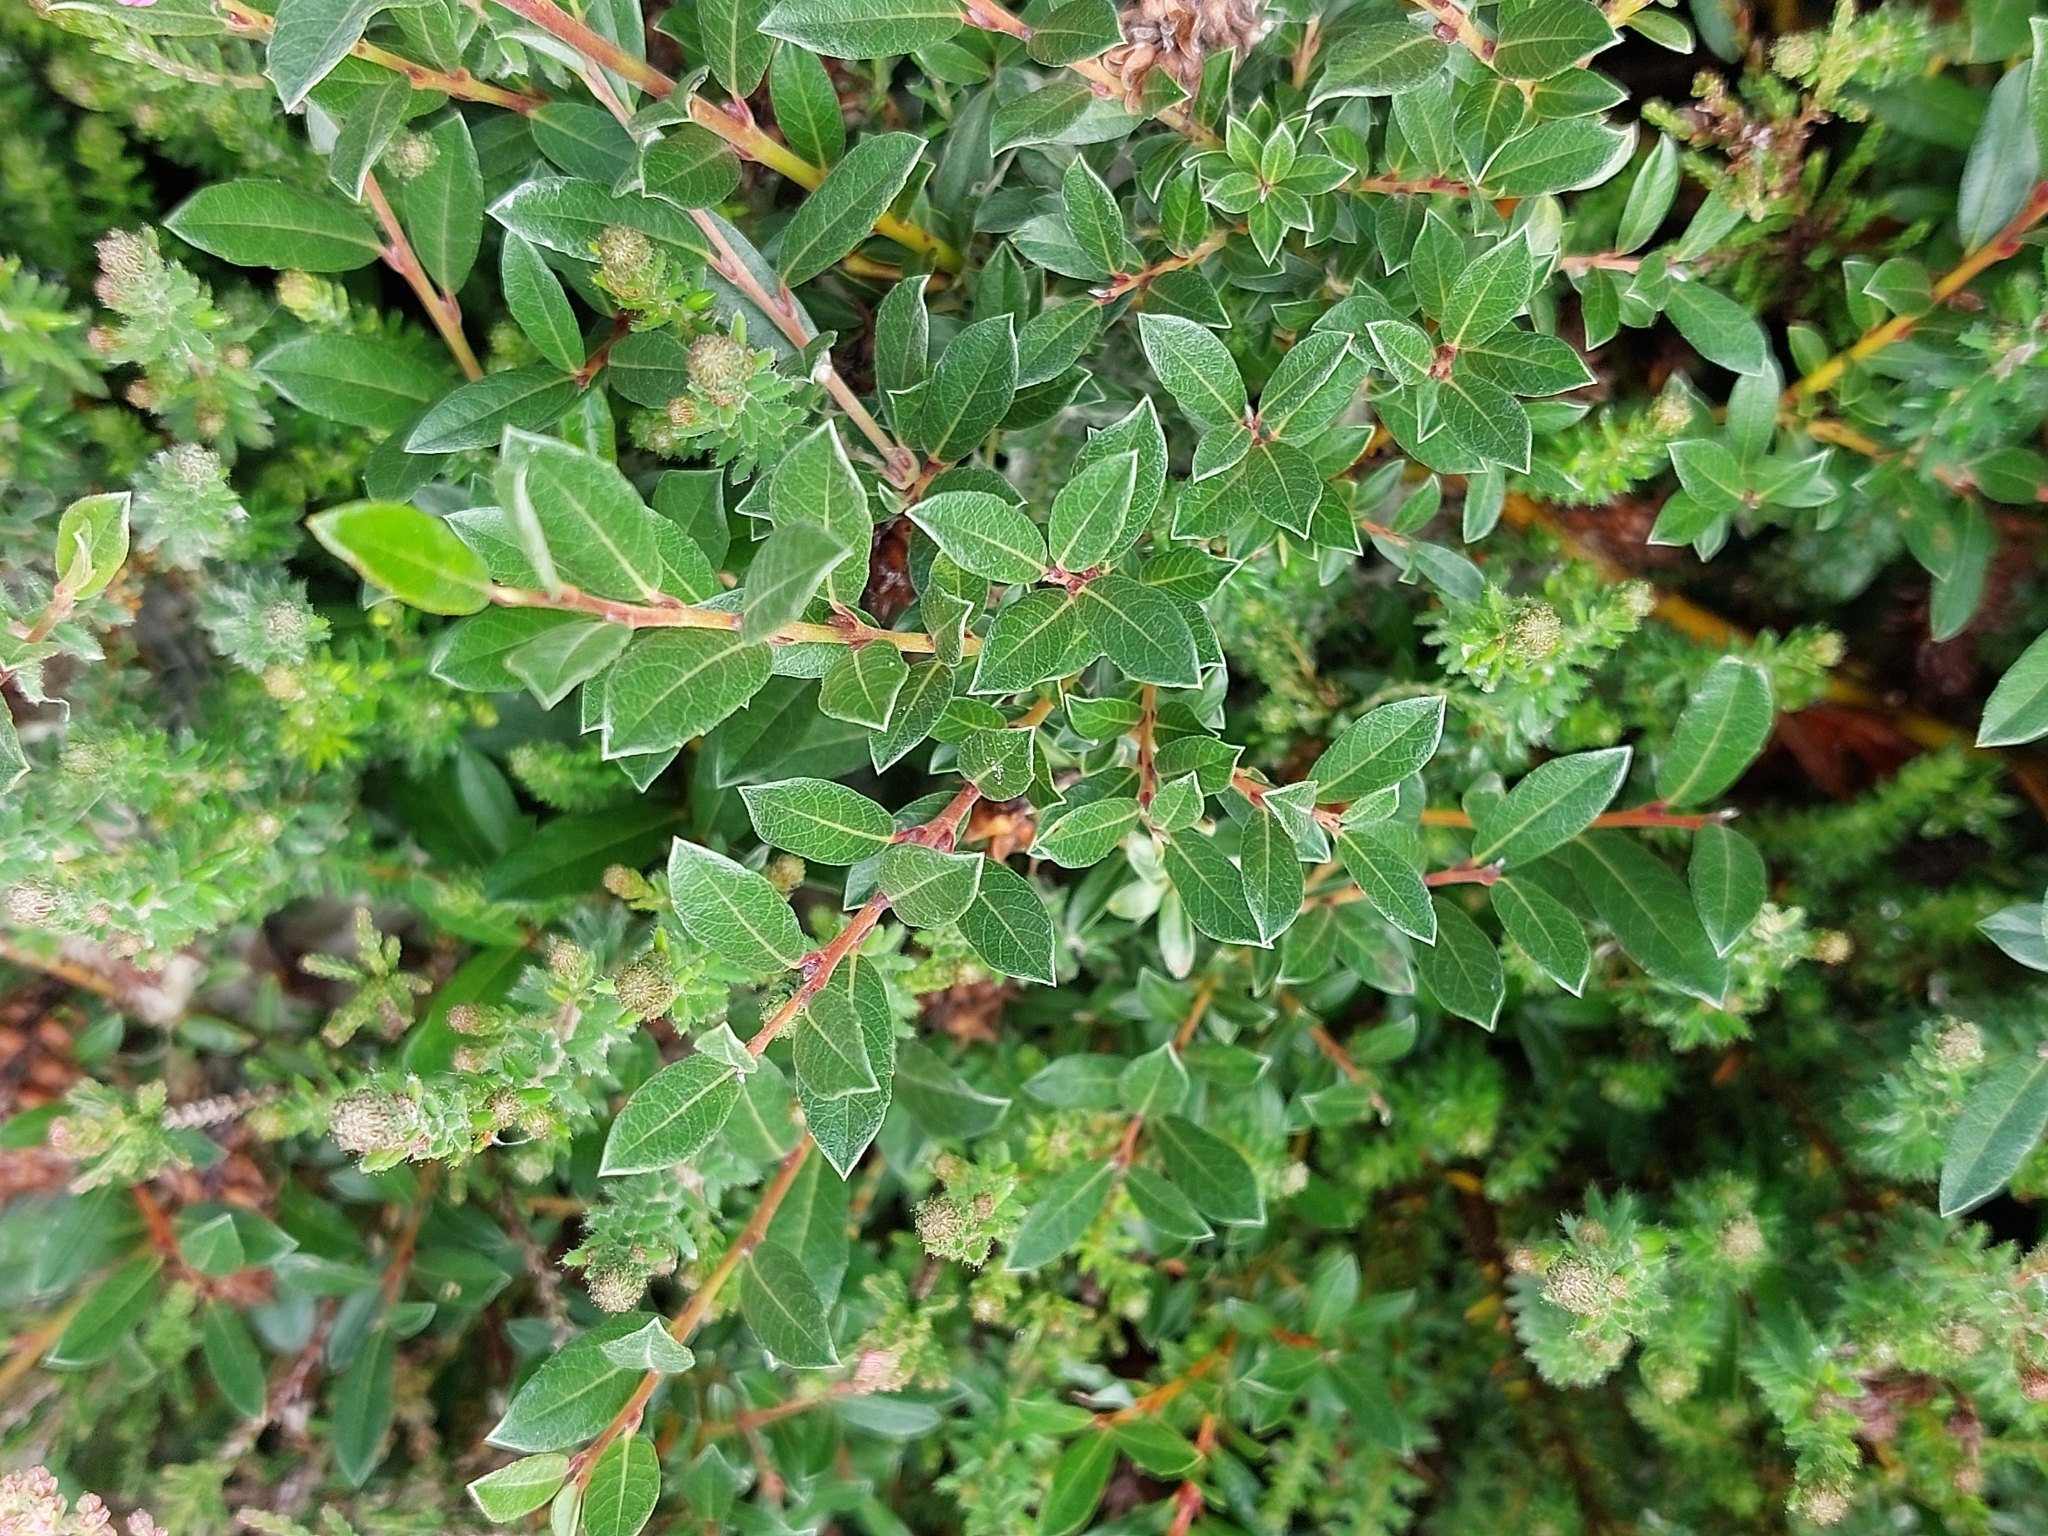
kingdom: Plantae
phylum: Tracheophyta
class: Magnoliopsida
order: Malpighiales
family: Salicaceae
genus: Salix
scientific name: Salix repens
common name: Creeping willow
